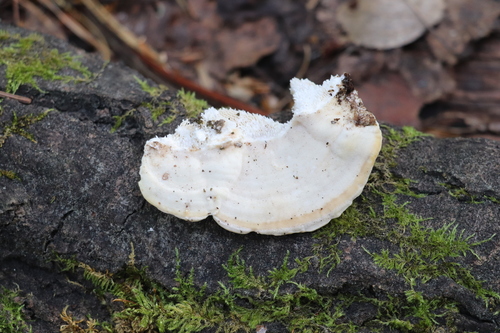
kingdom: Fungi
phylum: Basidiomycota
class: Agaricomycetes
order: Polyporales
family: Polyporaceae
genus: Trametes
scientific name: Trametes gibbosa
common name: Lumpy bracket
